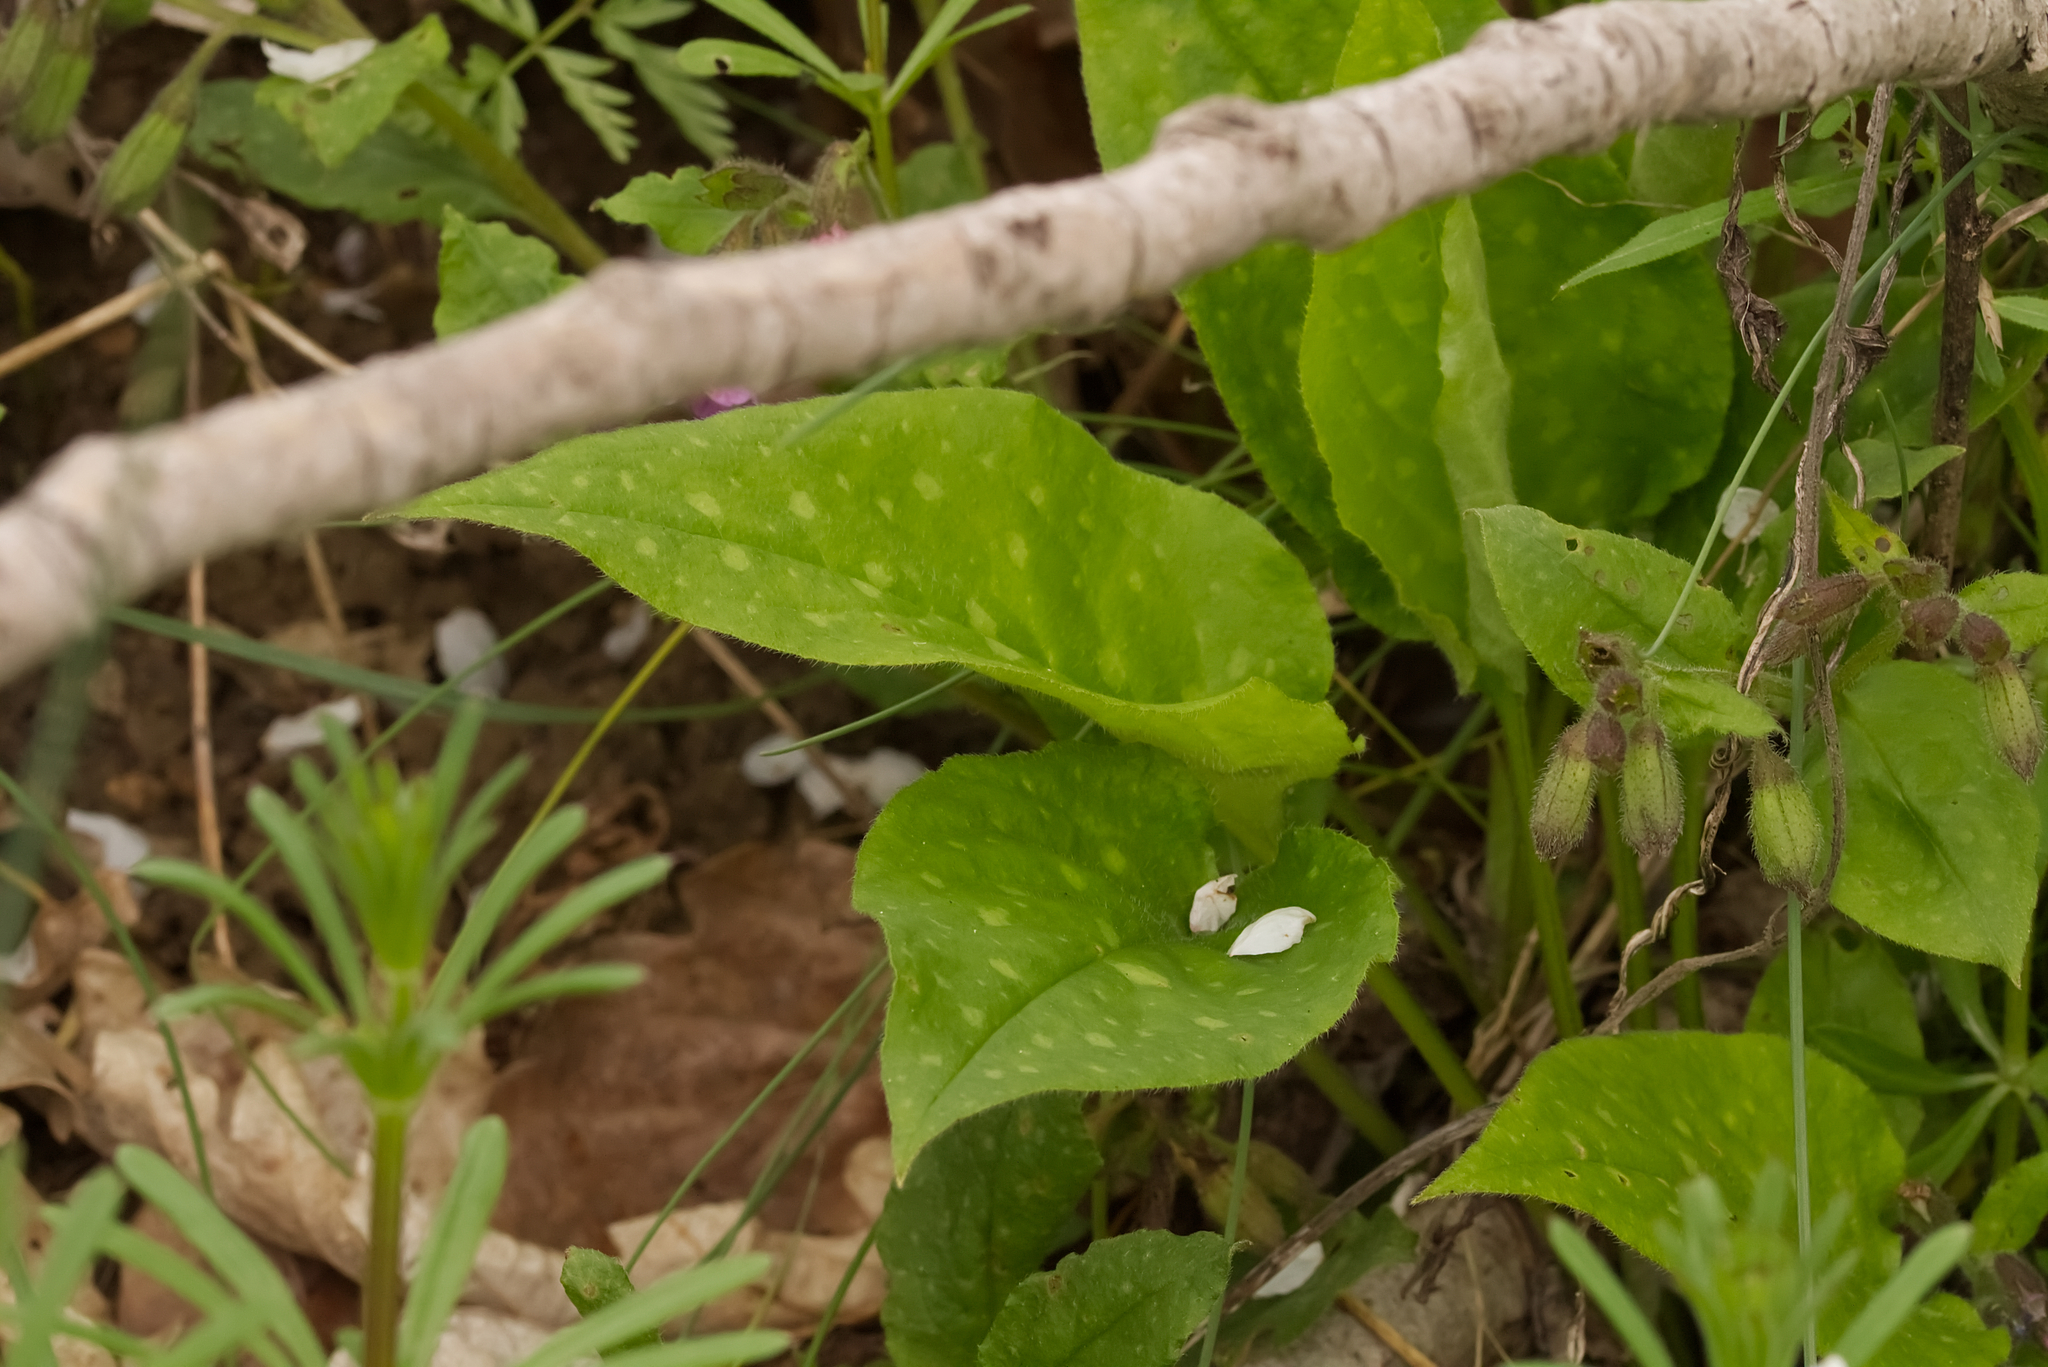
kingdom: Plantae
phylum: Tracheophyta
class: Magnoliopsida
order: Boraginales
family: Boraginaceae
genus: Pulmonaria
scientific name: Pulmonaria officinalis
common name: Lungwort
